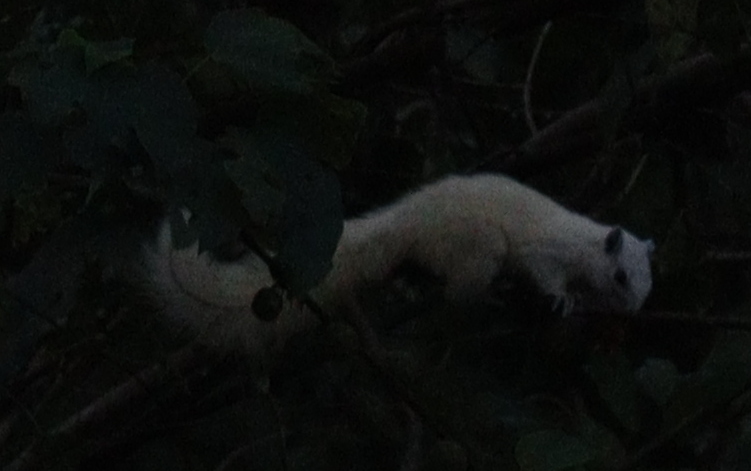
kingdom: Animalia
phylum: Chordata
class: Mammalia
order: Rodentia
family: Sciuridae
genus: Callosciurus
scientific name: Callosciurus finlaysonii
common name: Finlayson's squirrel
